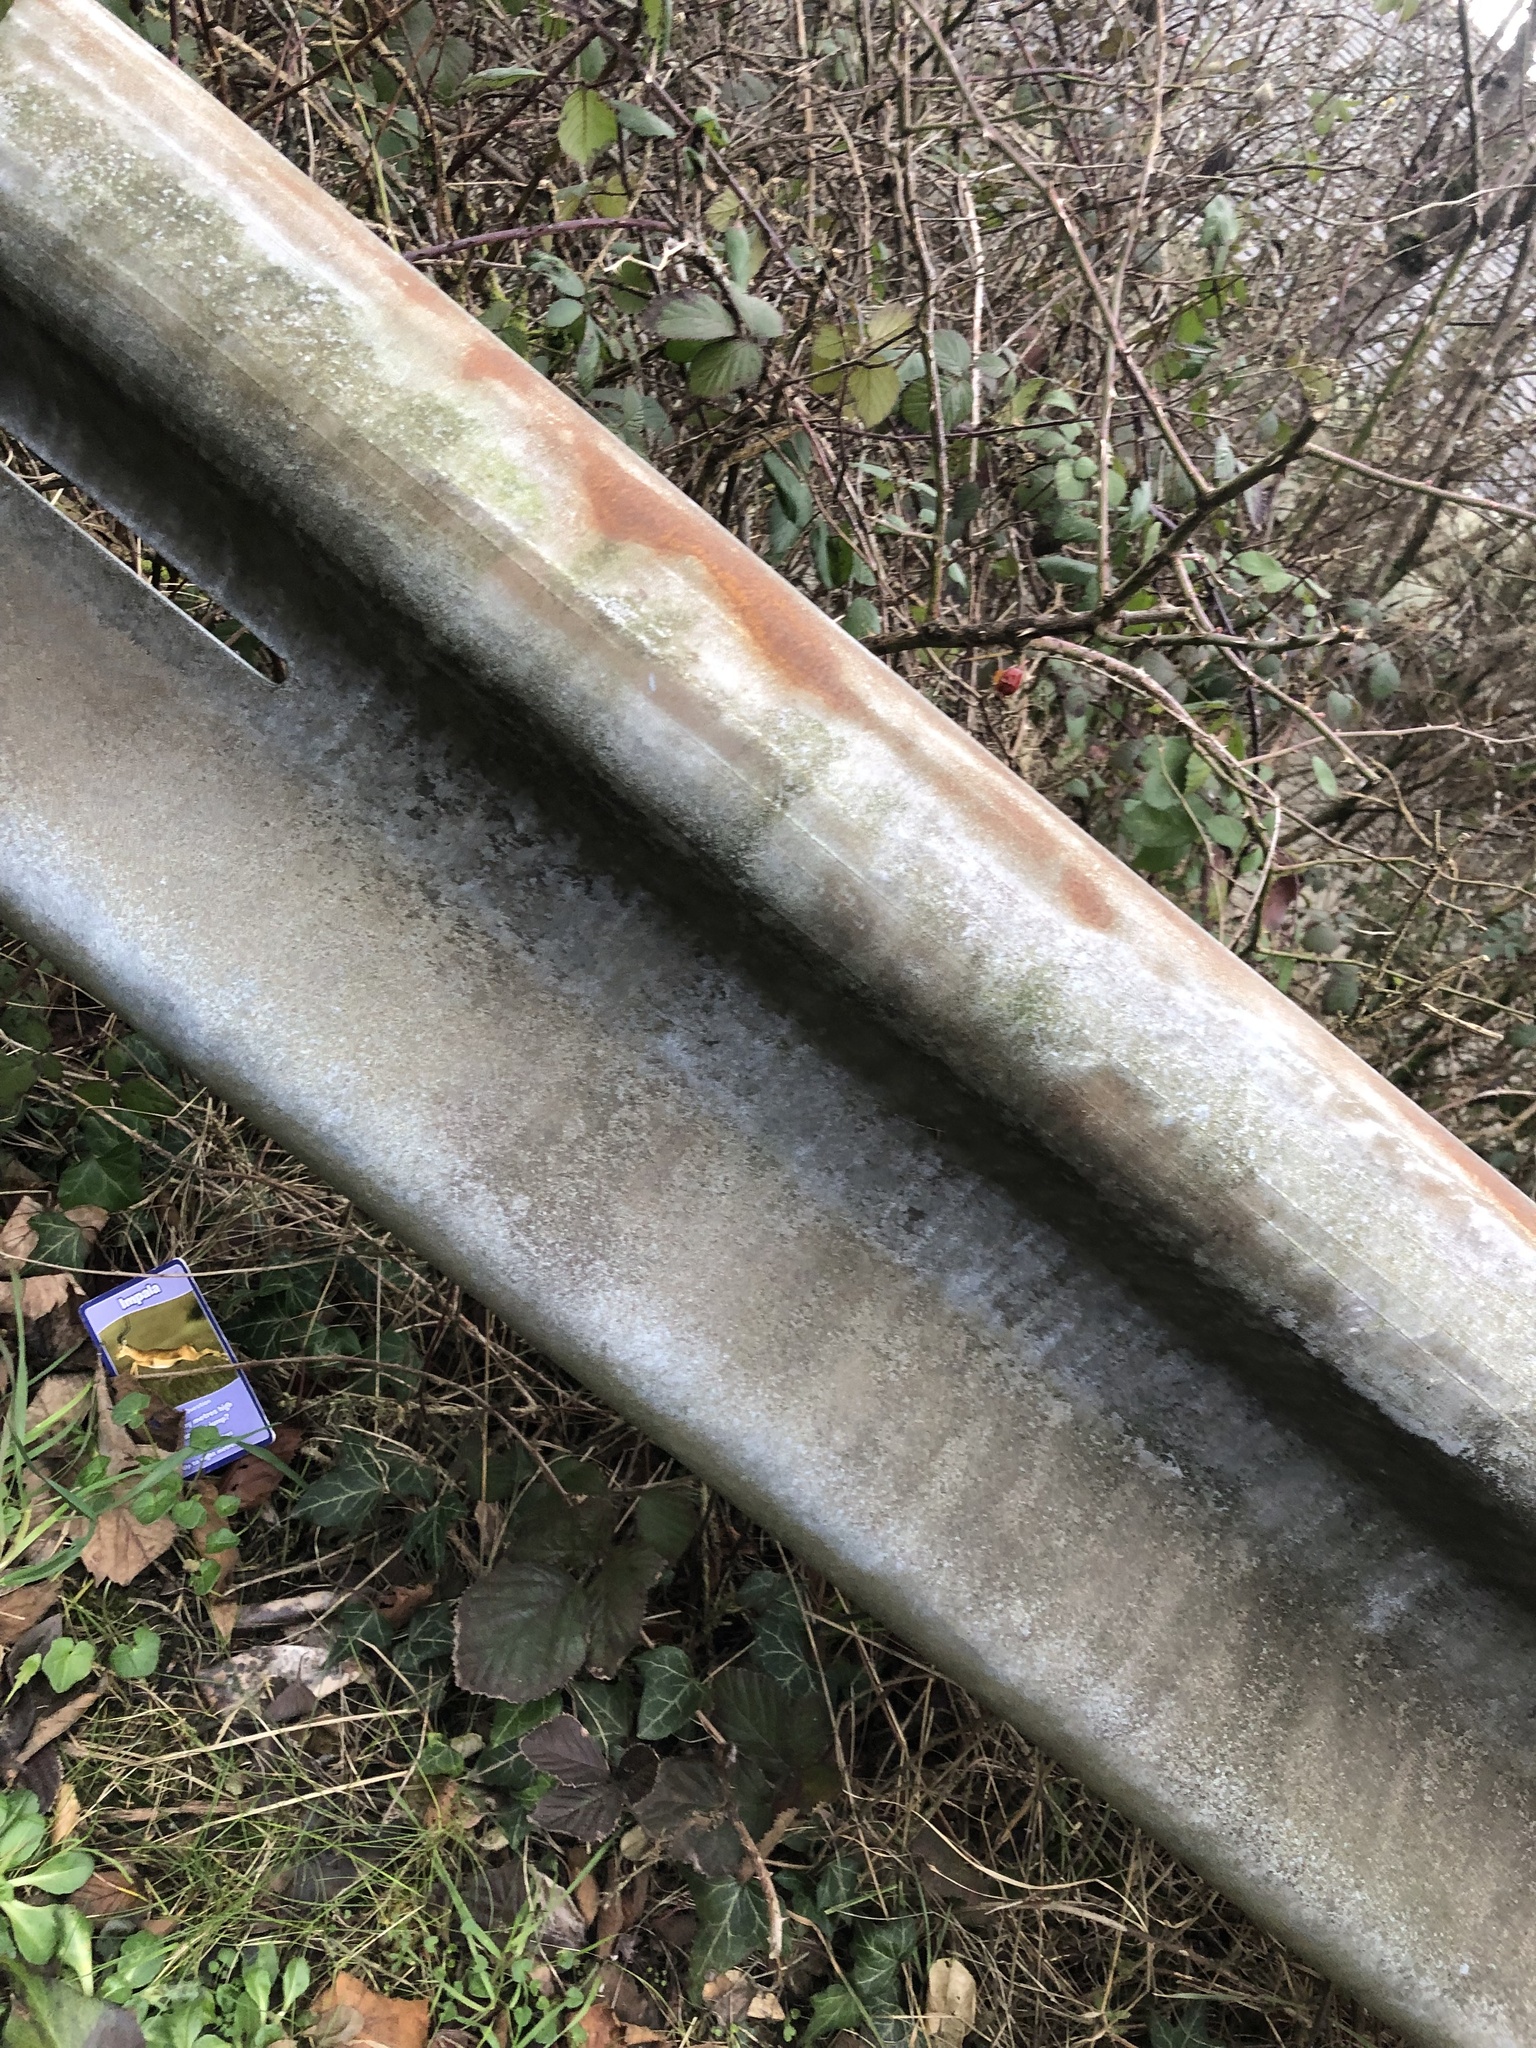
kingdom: Plantae
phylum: Tracheophyta
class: Magnoliopsida
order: Rosales
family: Rosaceae
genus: Rosa
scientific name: Rosa canina
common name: Dog rose
